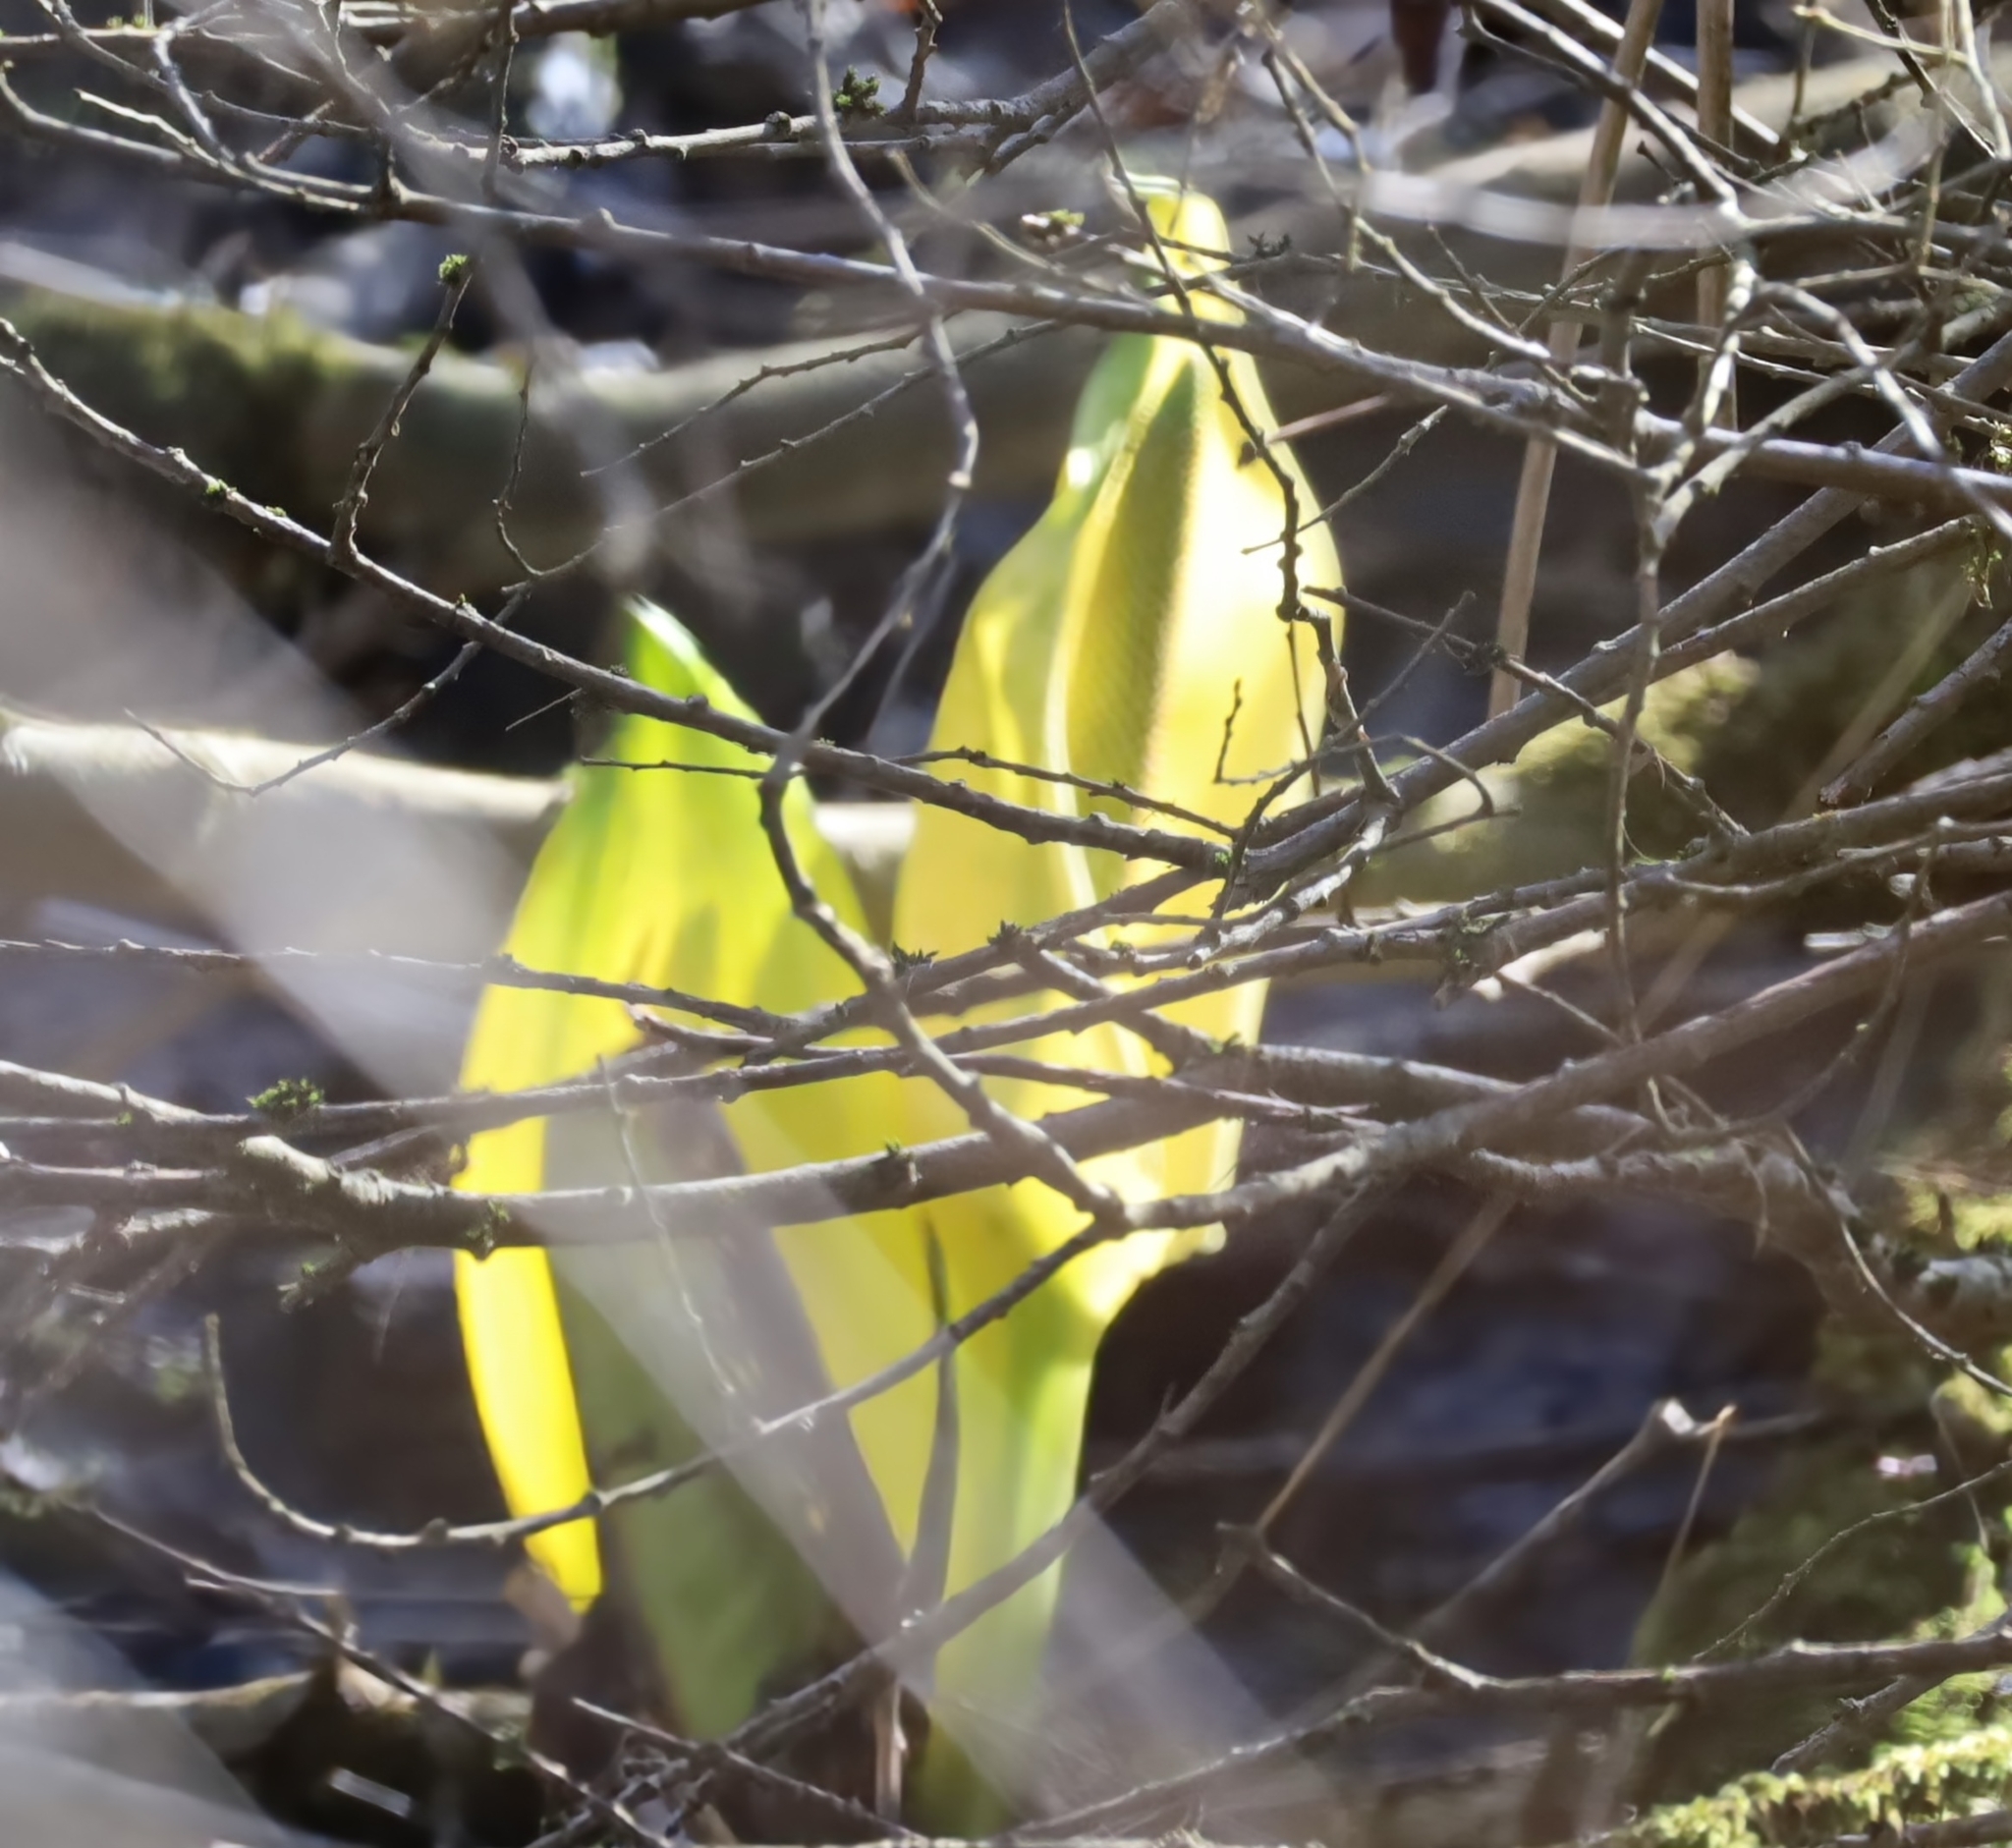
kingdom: Plantae
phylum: Tracheophyta
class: Liliopsida
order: Alismatales
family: Araceae
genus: Lysichiton
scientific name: Lysichiton americanus
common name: American skunk cabbage
